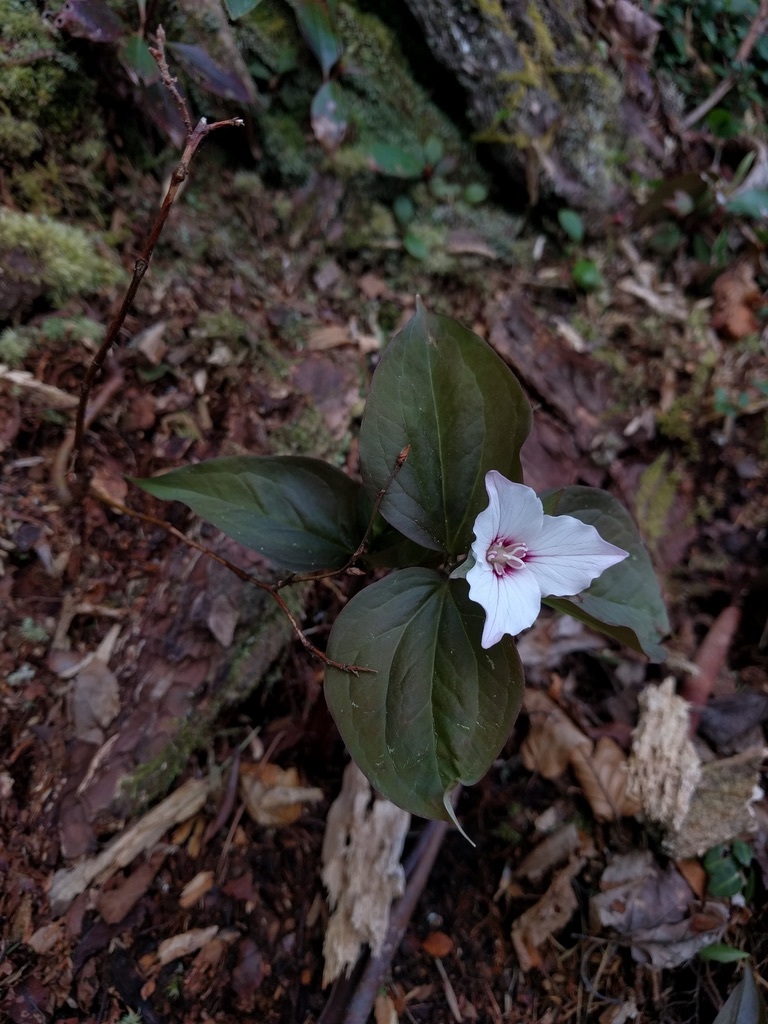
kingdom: Plantae
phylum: Tracheophyta
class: Liliopsida
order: Liliales
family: Melanthiaceae
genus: Trillium
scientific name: Trillium undulatum
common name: Paint trillium
